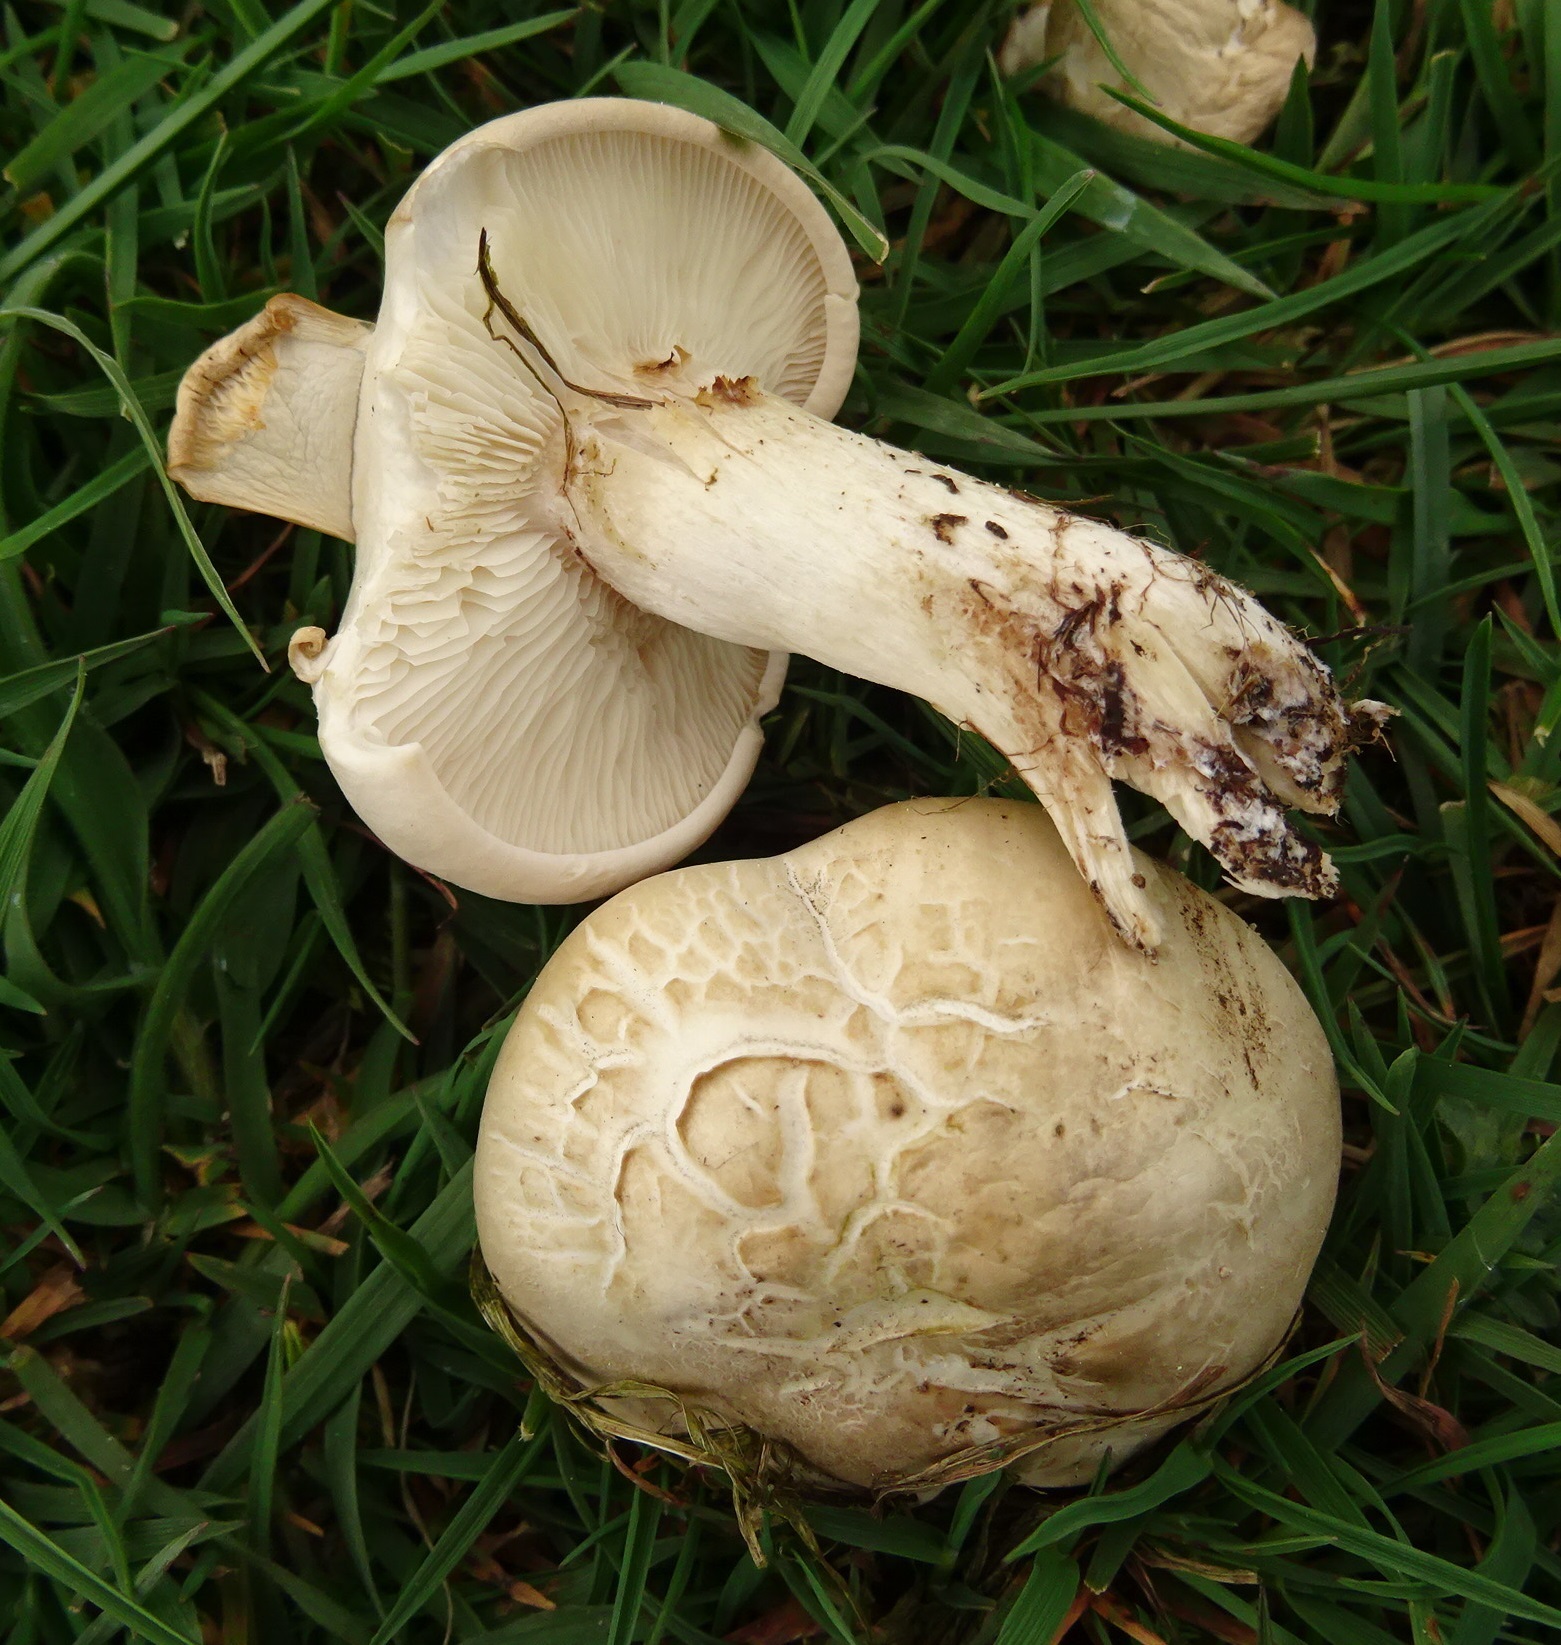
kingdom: Fungi
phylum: Basidiomycota
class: Agaricomycetes
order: Agaricales
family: Lyophyllaceae
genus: Calocybe
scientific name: Calocybe gambosa
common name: St. george's mushroom
